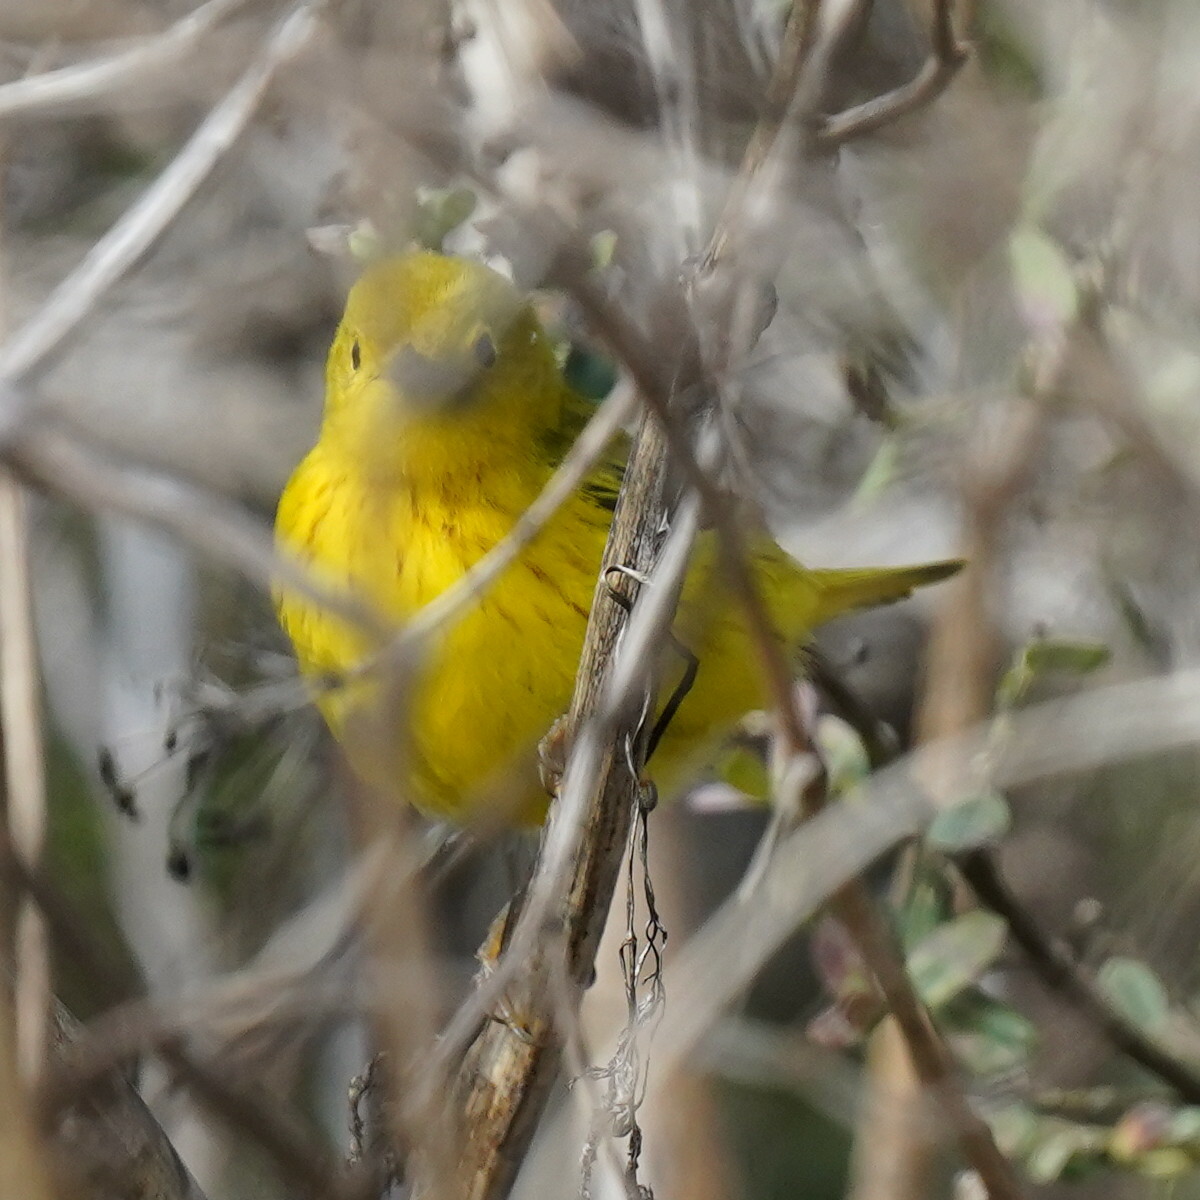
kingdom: Animalia
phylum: Chordata
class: Aves
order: Passeriformes
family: Parulidae
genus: Setophaga
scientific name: Setophaga petechia
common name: Yellow warbler
